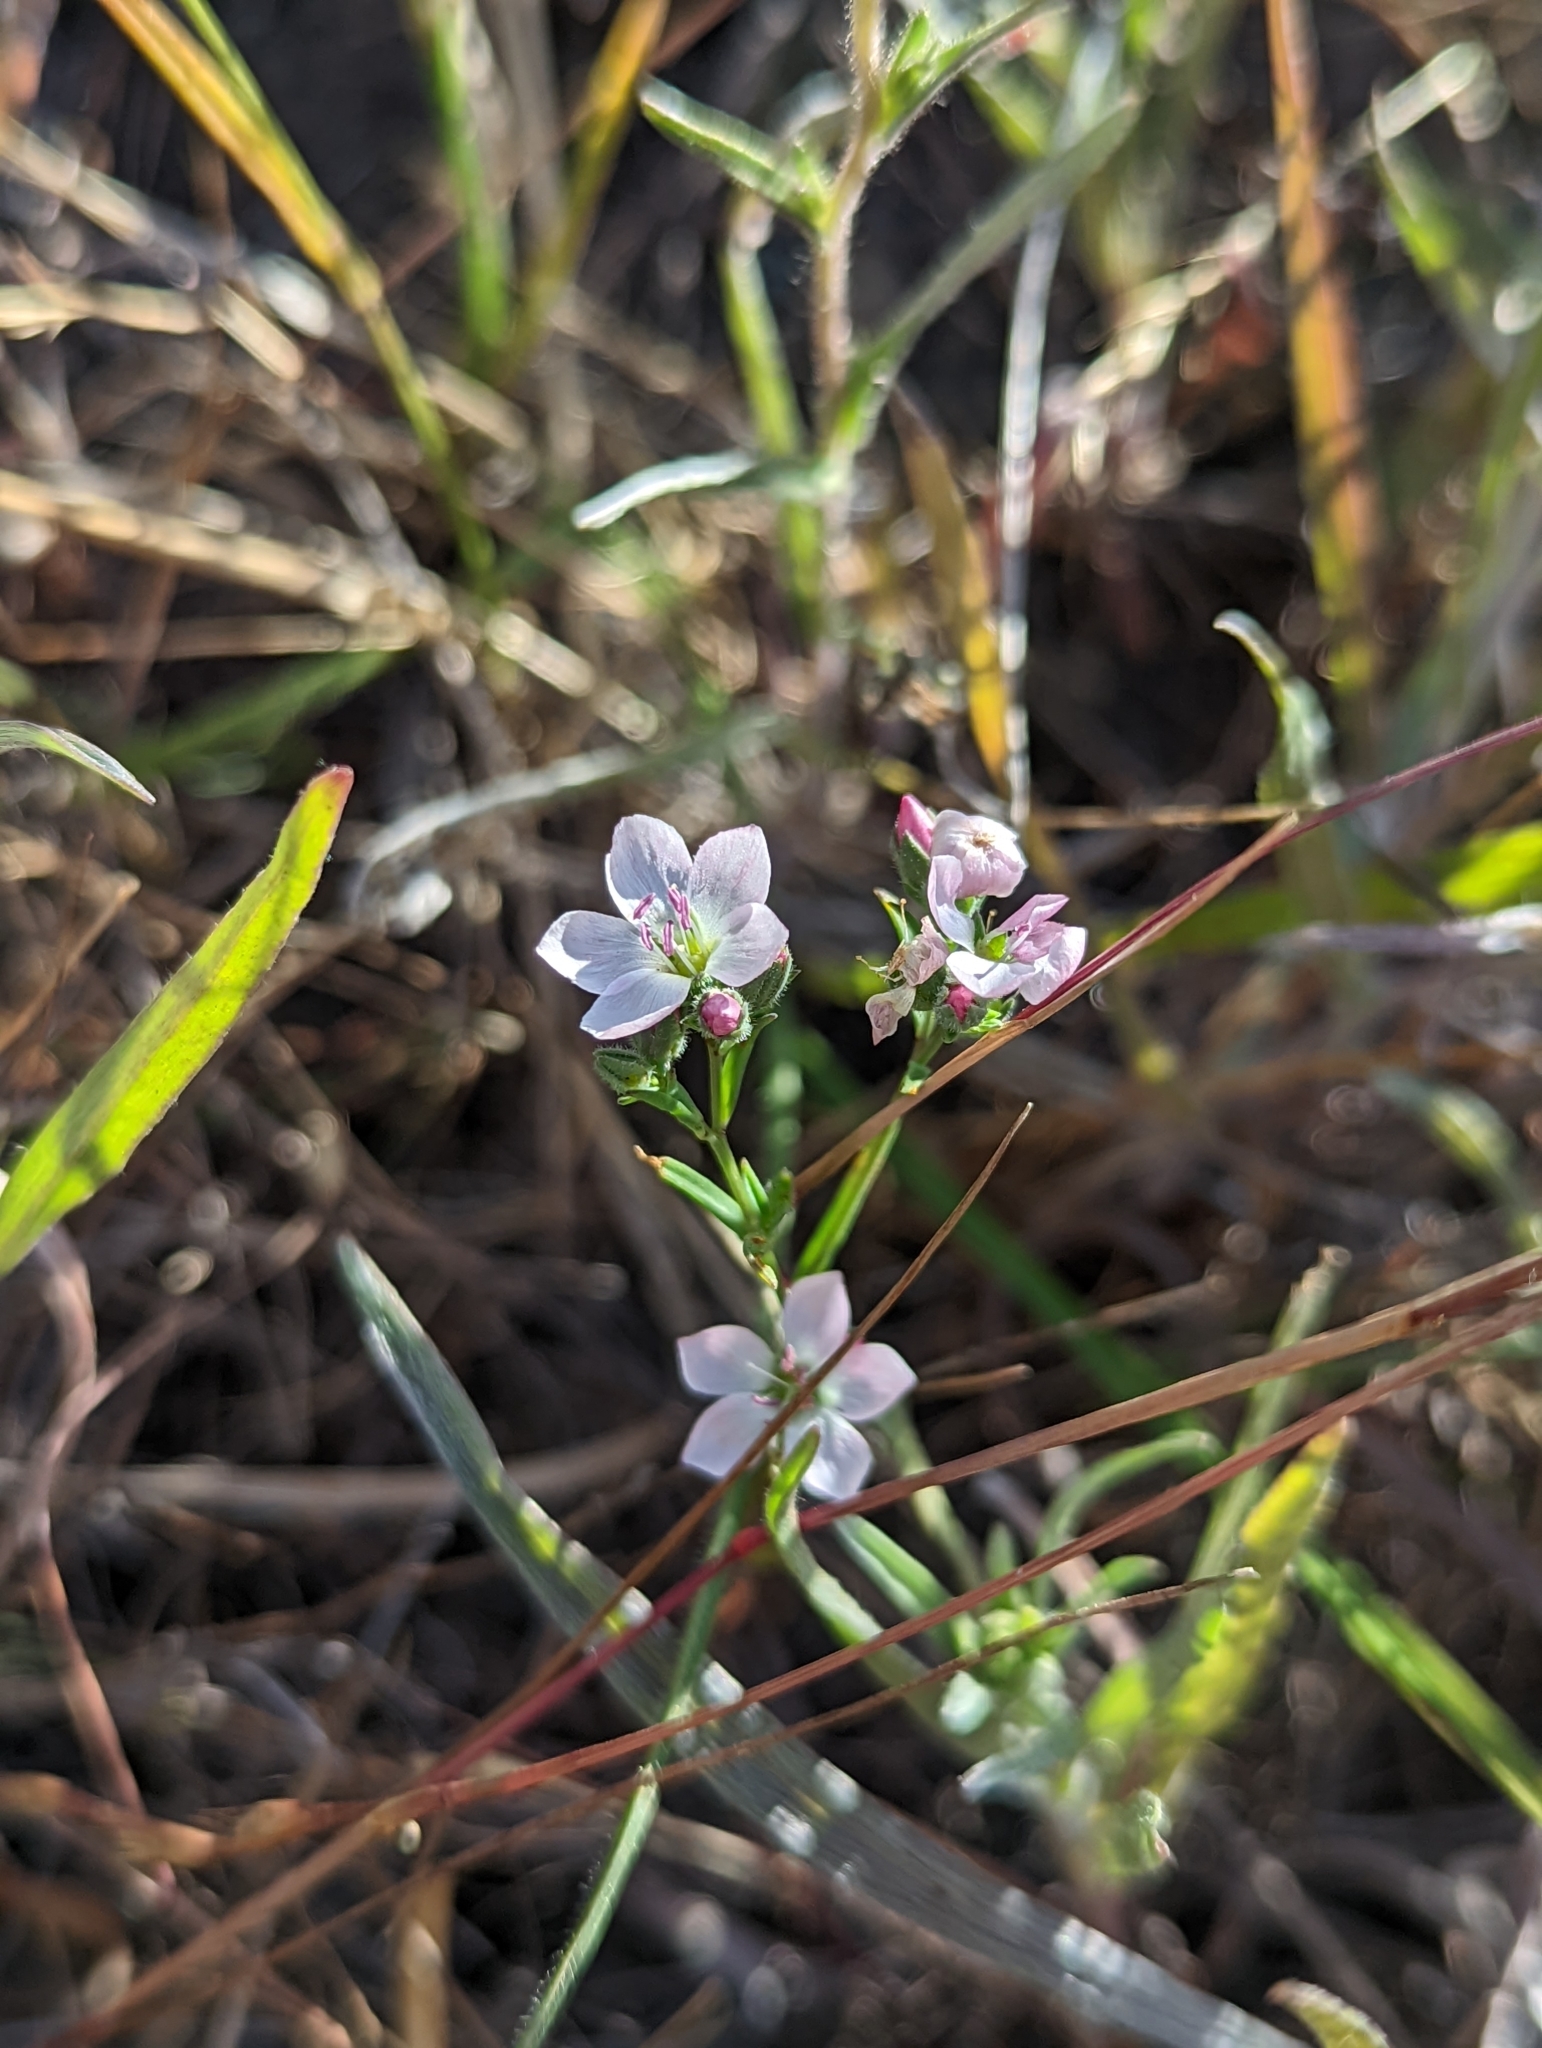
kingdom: Plantae
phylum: Tracheophyta
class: Magnoliopsida
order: Malpighiales
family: Linaceae
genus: Hesperolinon
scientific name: Hesperolinon congestum
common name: Marin dwarf-flax
